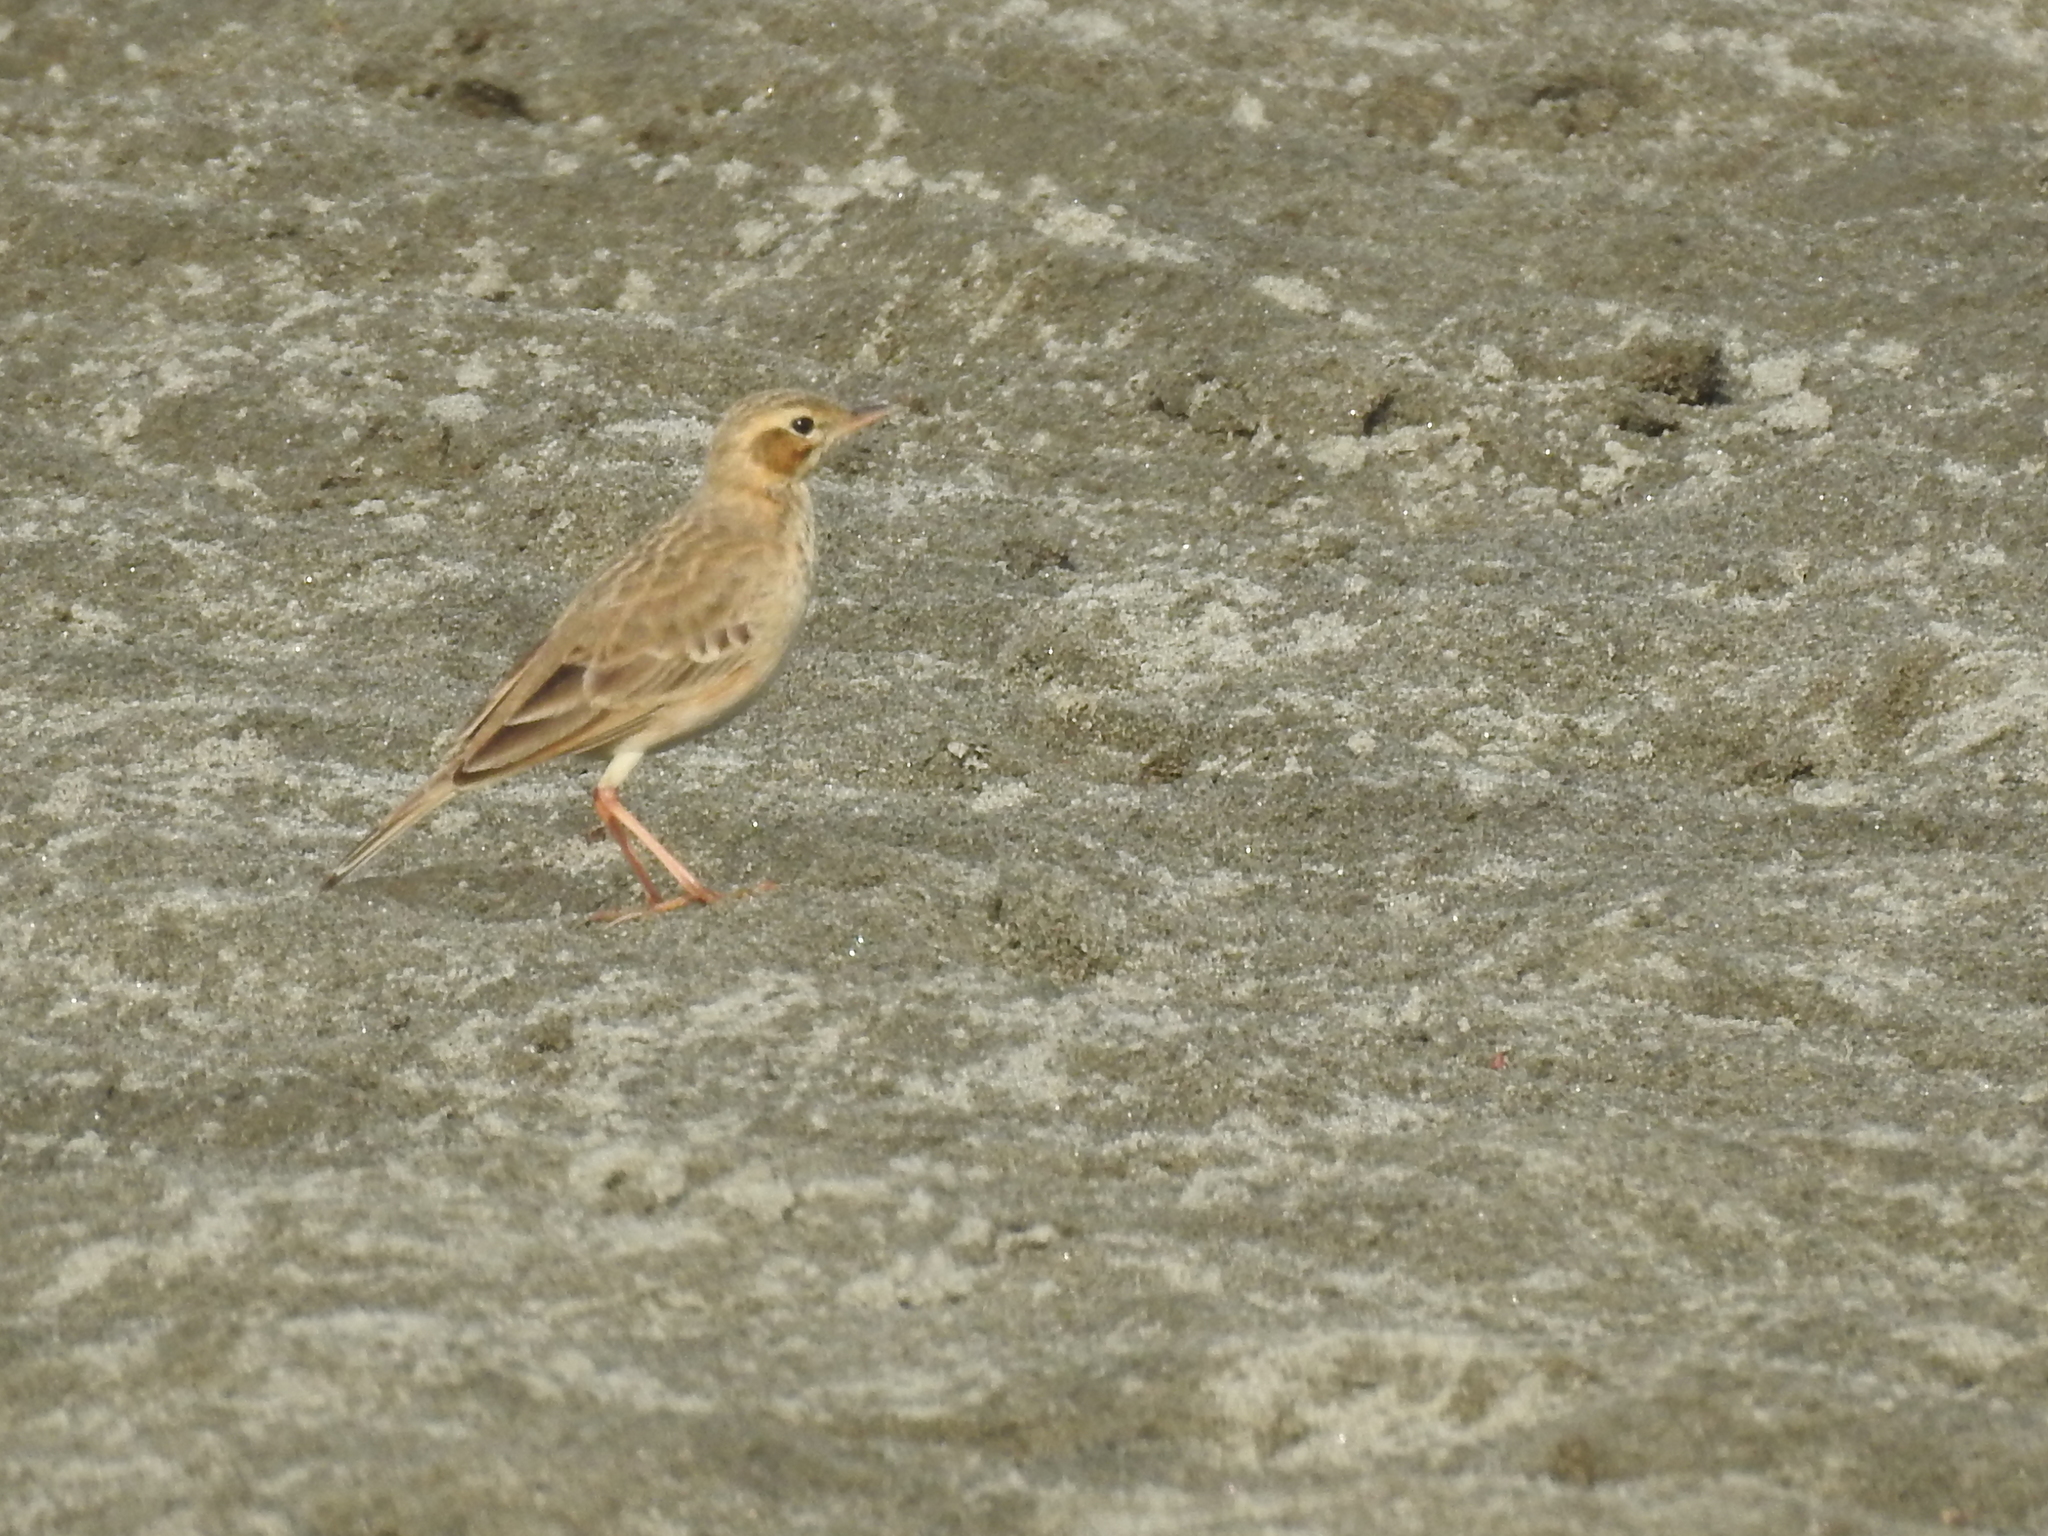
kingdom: Animalia
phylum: Chordata
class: Aves
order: Passeriformes
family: Motacillidae
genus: Anthus
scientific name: Anthus rufulus
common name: Paddyfield pipit
